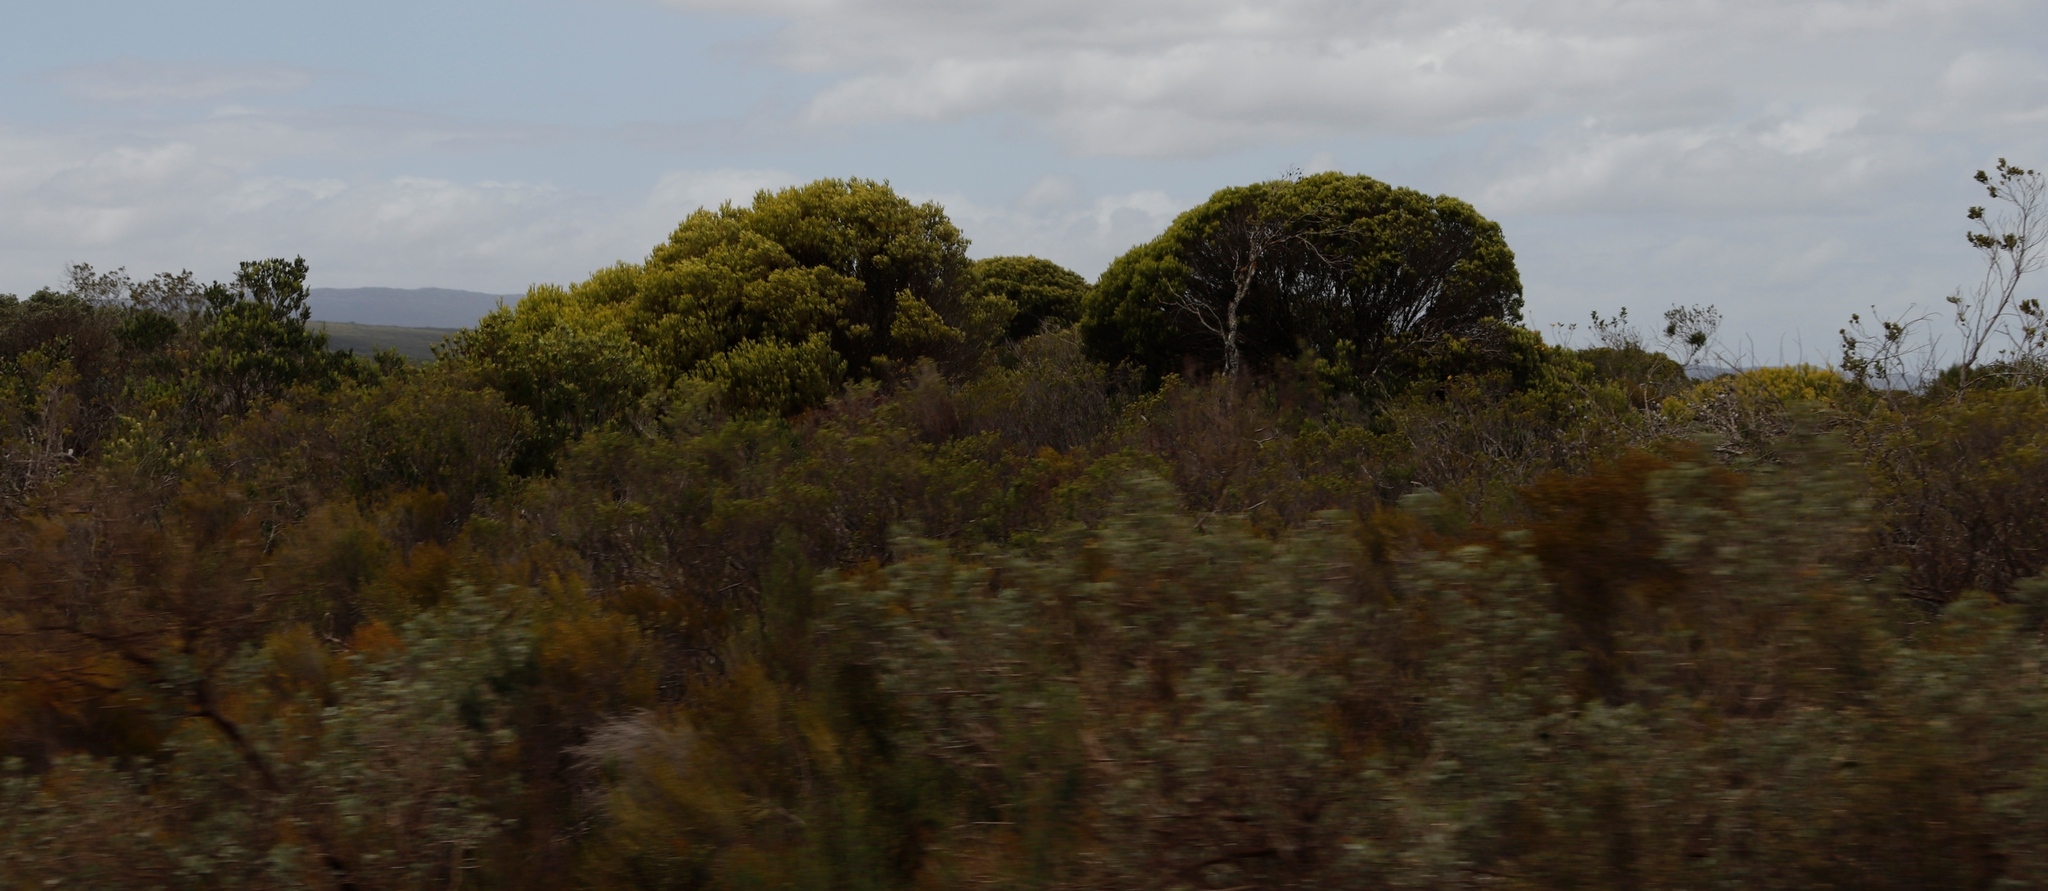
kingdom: Plantae
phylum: Tracheophyta
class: Magnoliopsida
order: Proteales
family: Proteaceae
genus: Leucadendron
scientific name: Leucadendron meridianum
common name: Limestone conebush
